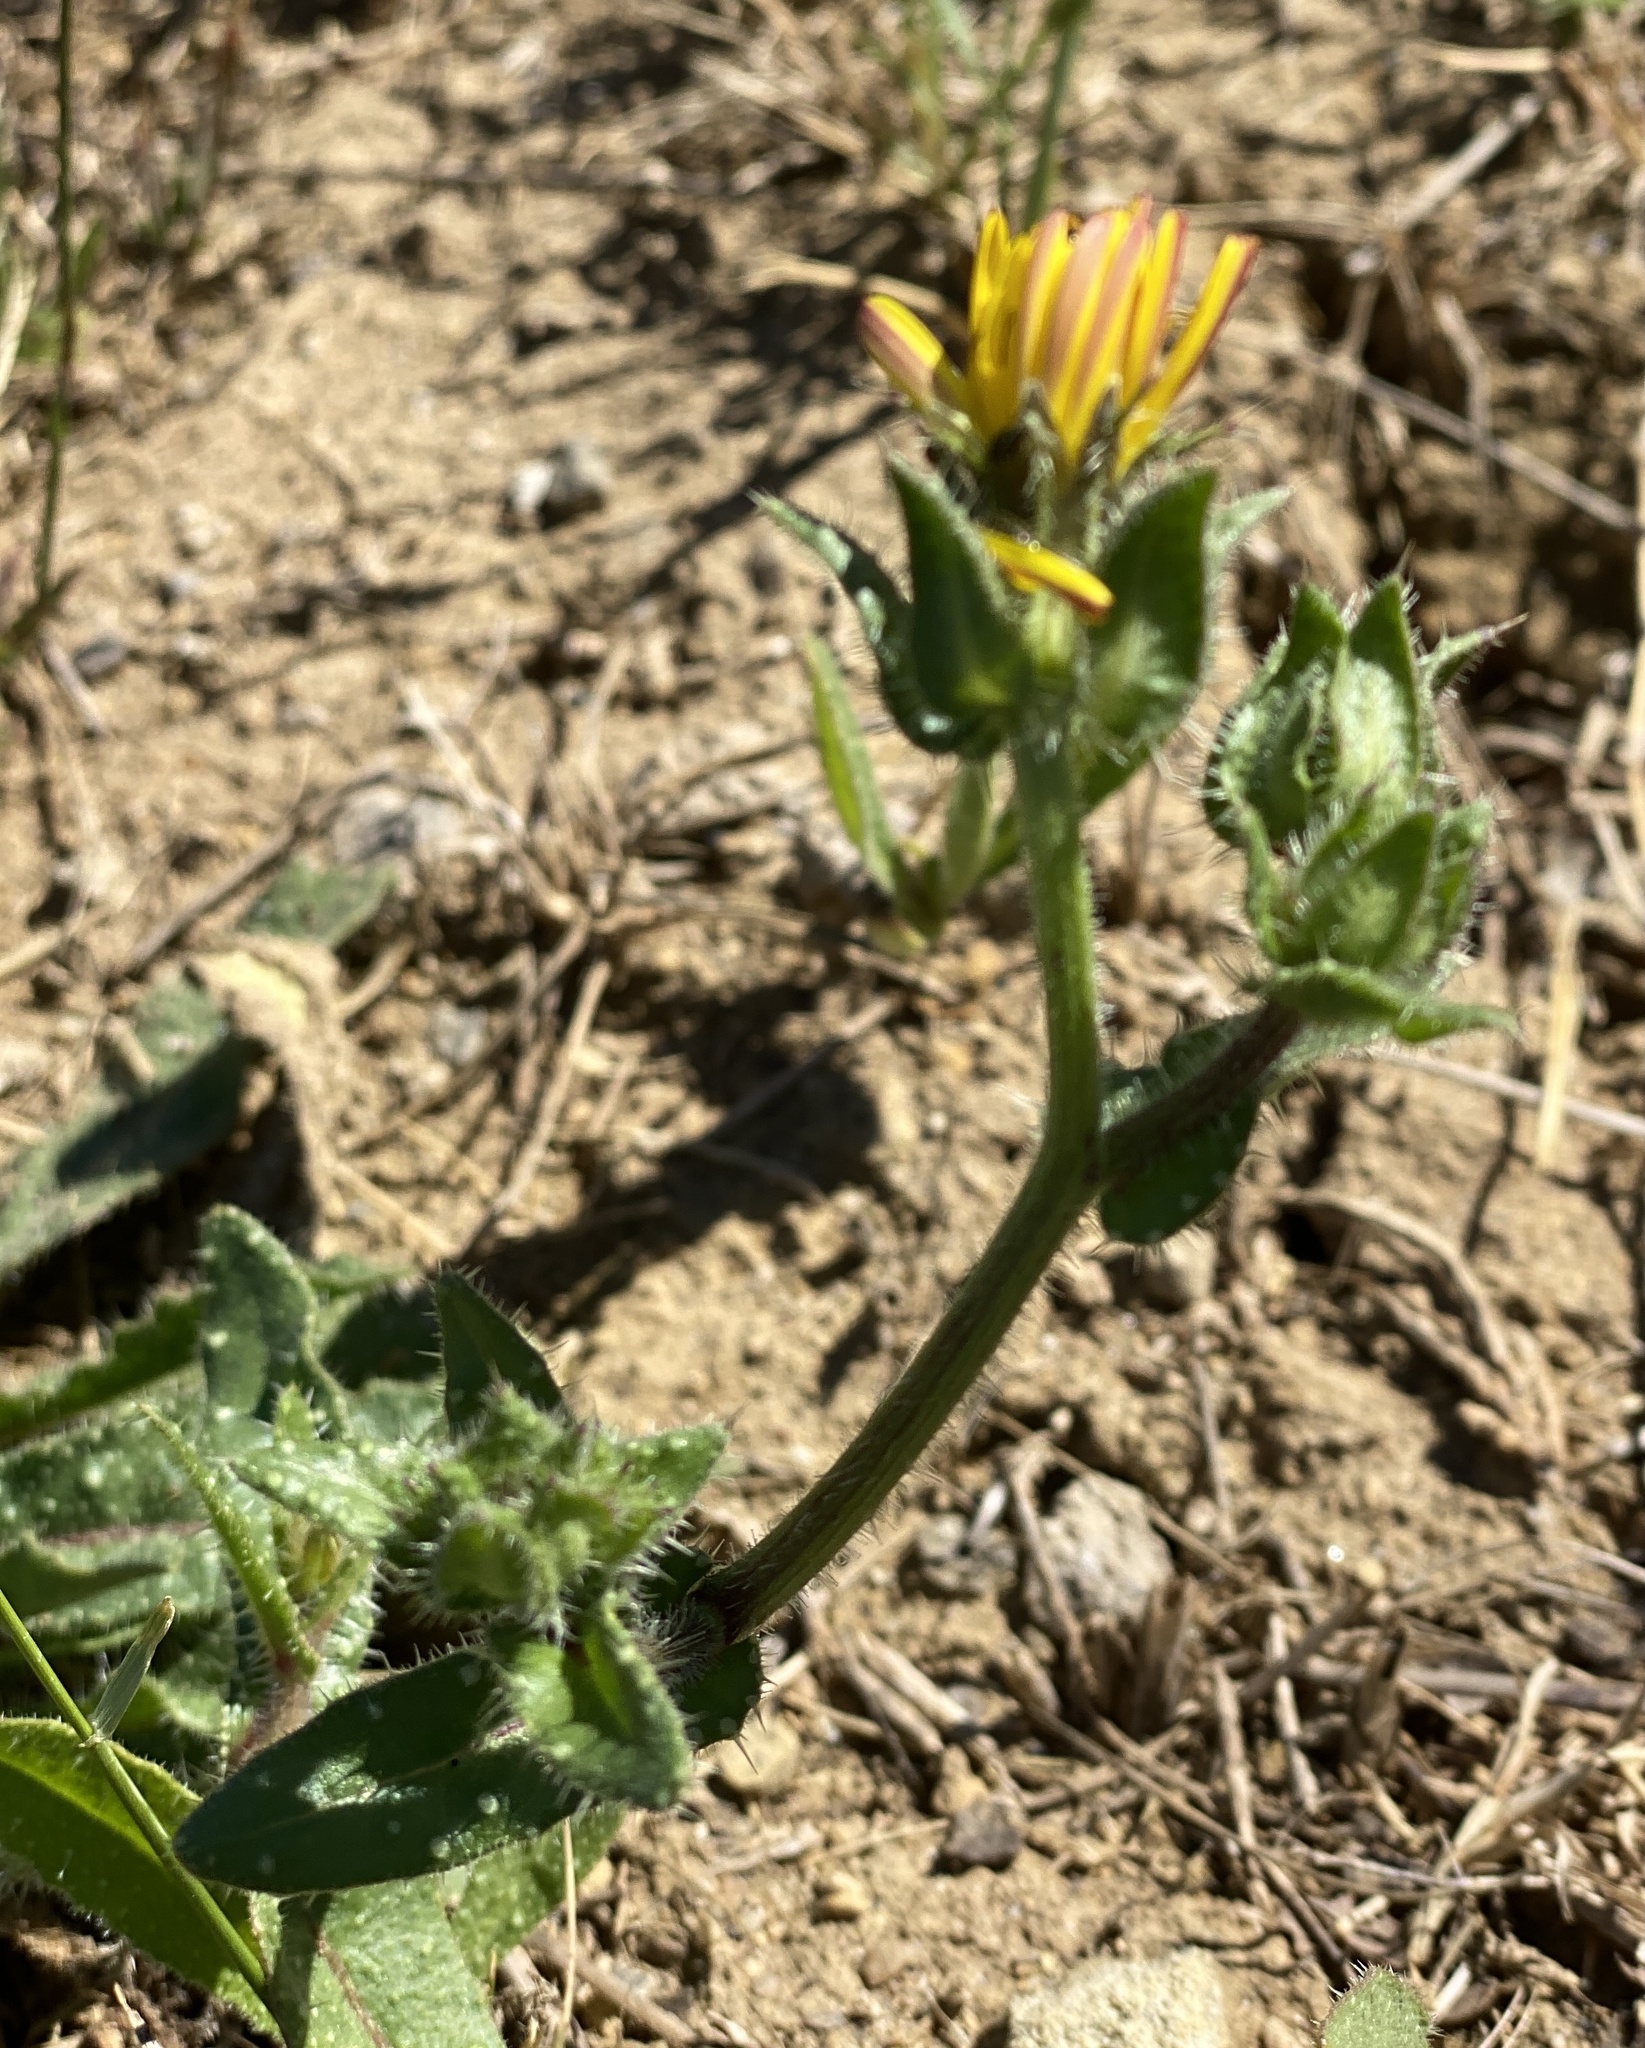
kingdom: Plantae
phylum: Tracheophyta
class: Magnoliopsida
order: Asterales
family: Asteraceae
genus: Helminthotheca
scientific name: Helminthotheca echioides
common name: Ox-tongue
